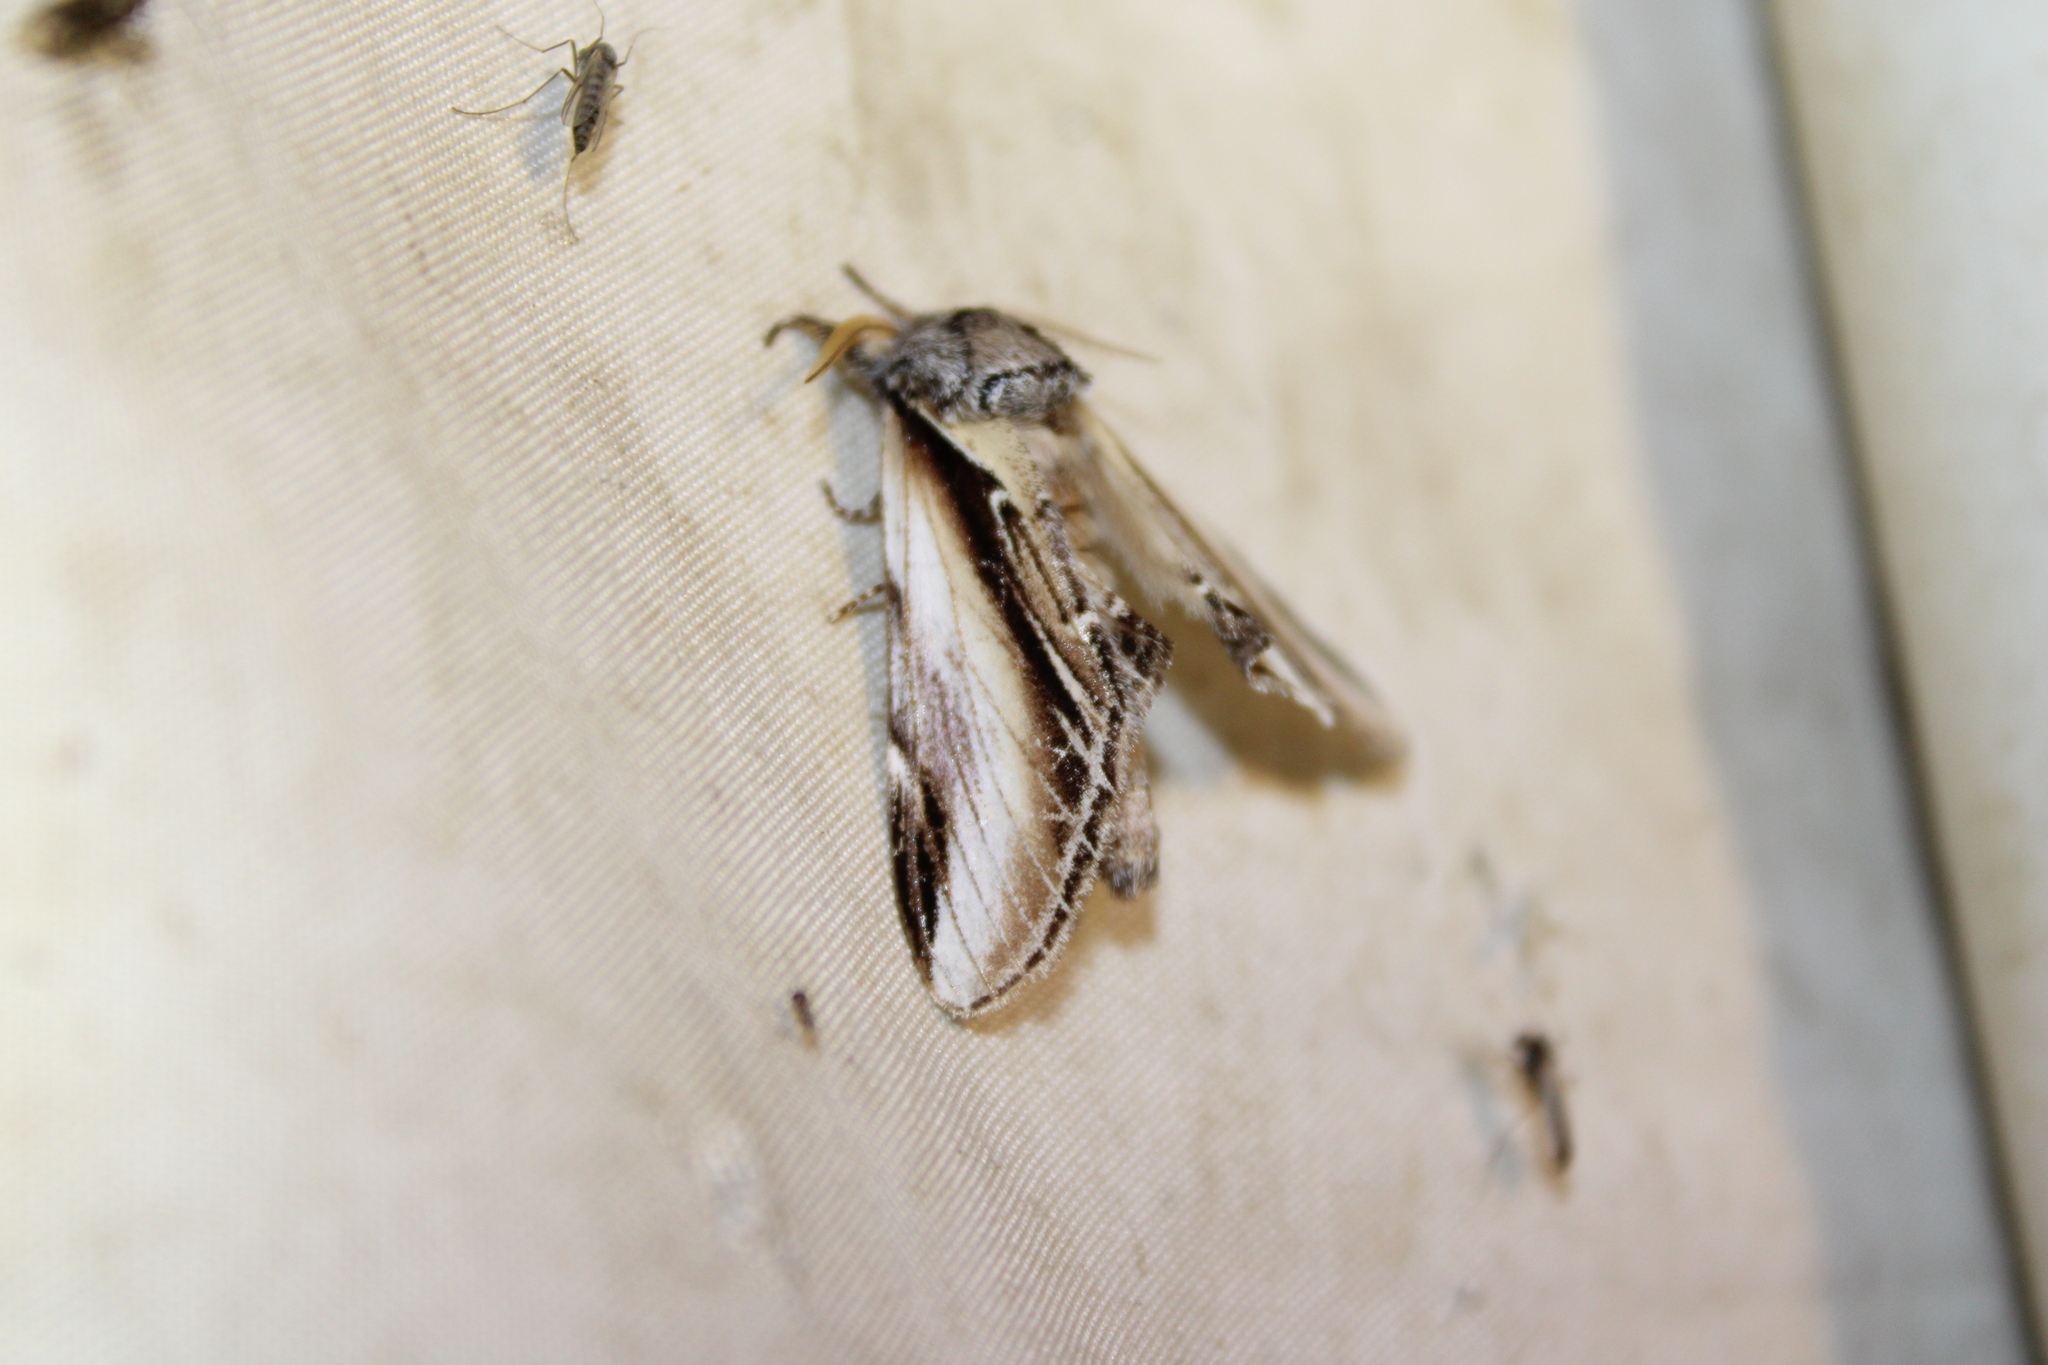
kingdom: Animalia
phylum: Arthropoda
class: Insecta
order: Lepidoptera
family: Notodontidae
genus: Pheosia
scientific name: Pheosia rimosa
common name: Black-rimmed prominent
